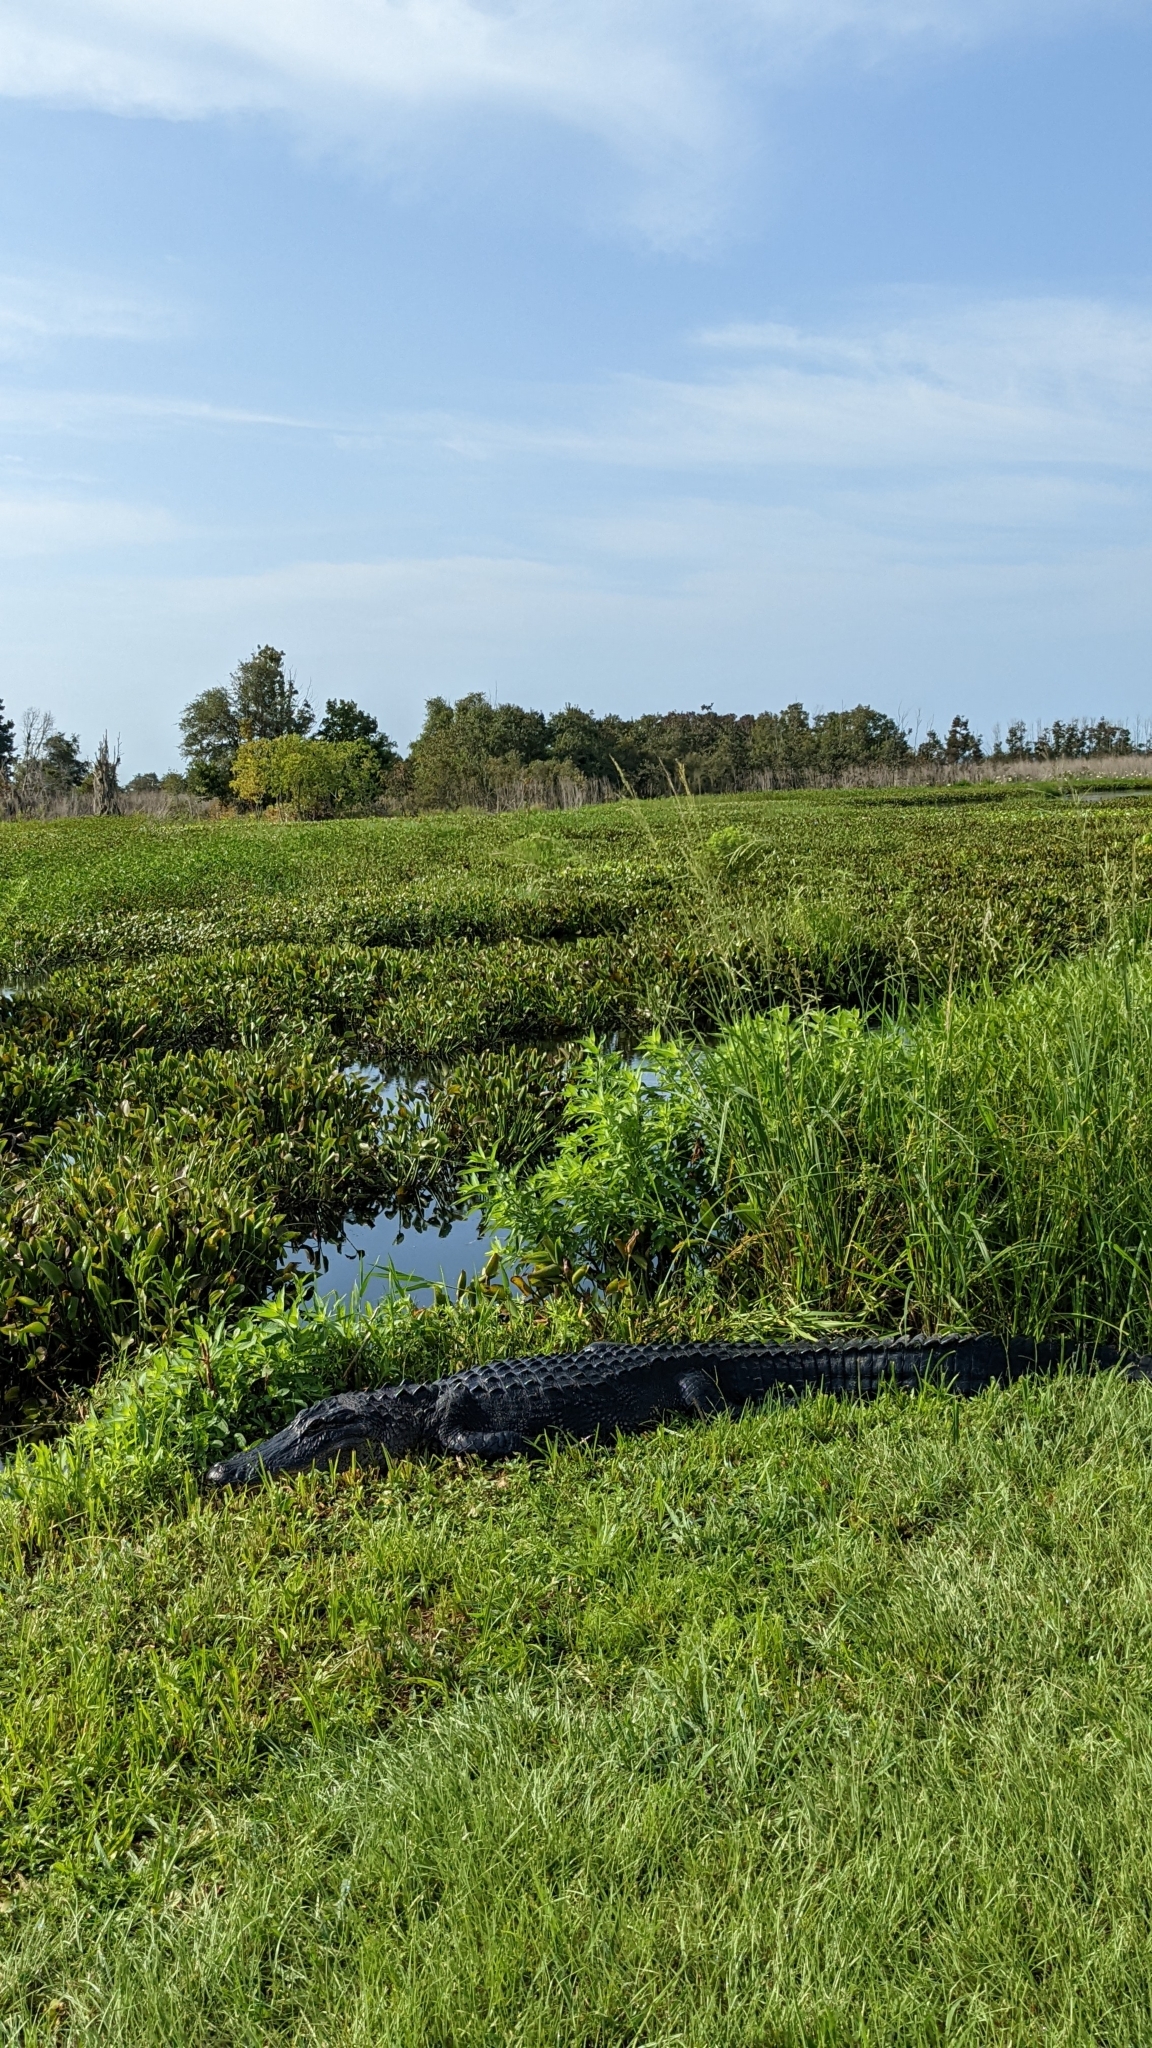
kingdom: Animalia
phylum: Chordata
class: Crocodylia
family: Alligatoridae
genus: Alligator
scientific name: Alligator mississippiensis
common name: American alligator
